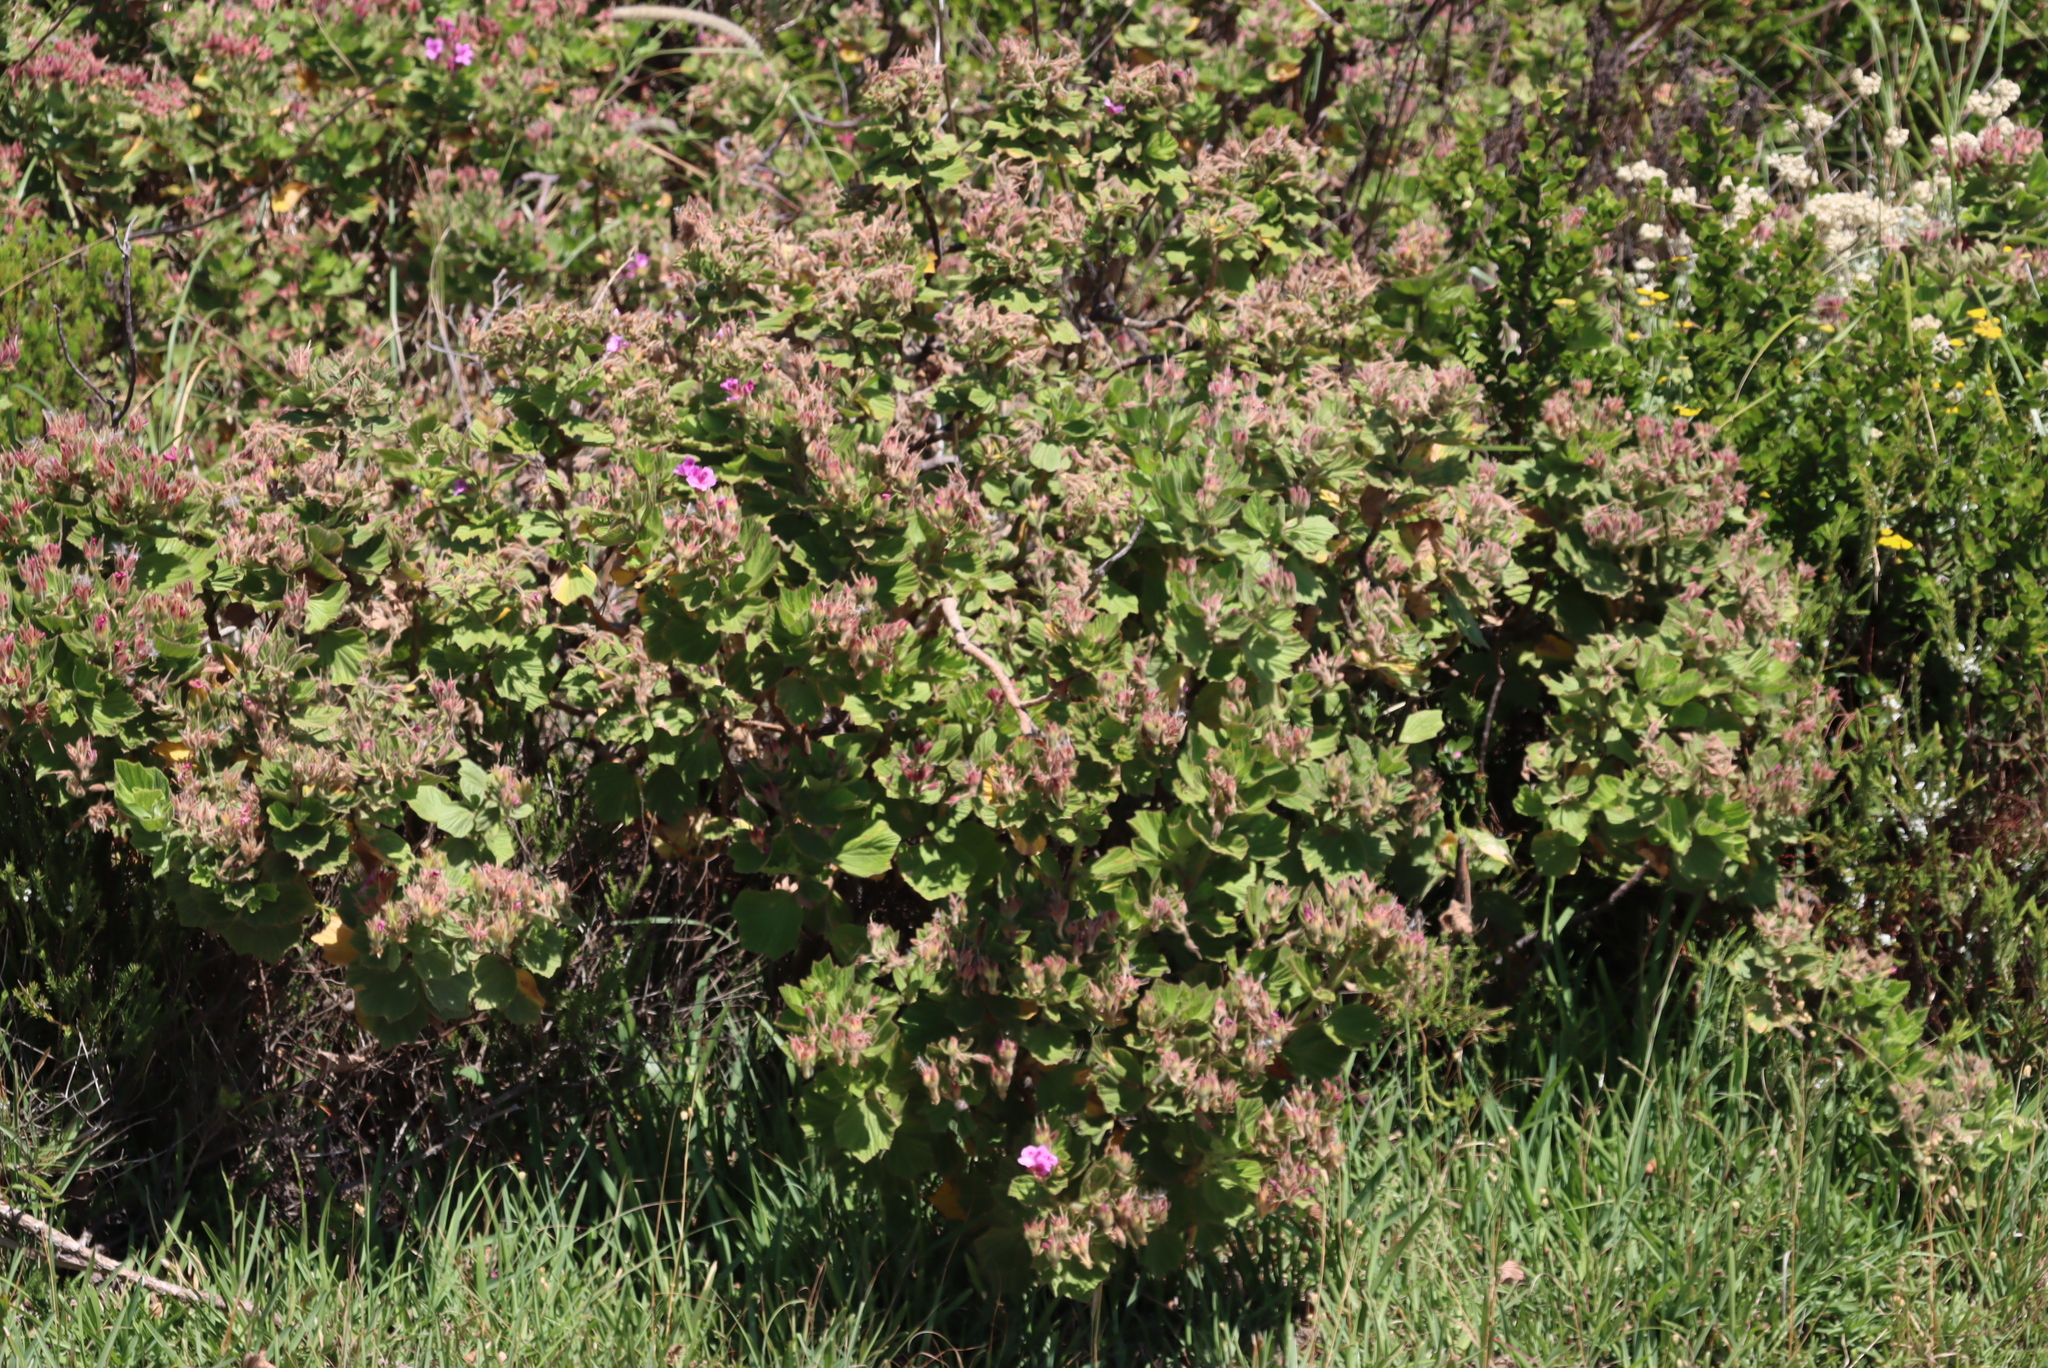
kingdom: Plantae
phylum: Tracheophyta
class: Magnoliopsida
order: Geraniales
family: Geraniaceae
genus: Pelargonium
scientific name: Pelargonium cucullatum
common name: Tree pelargonium
